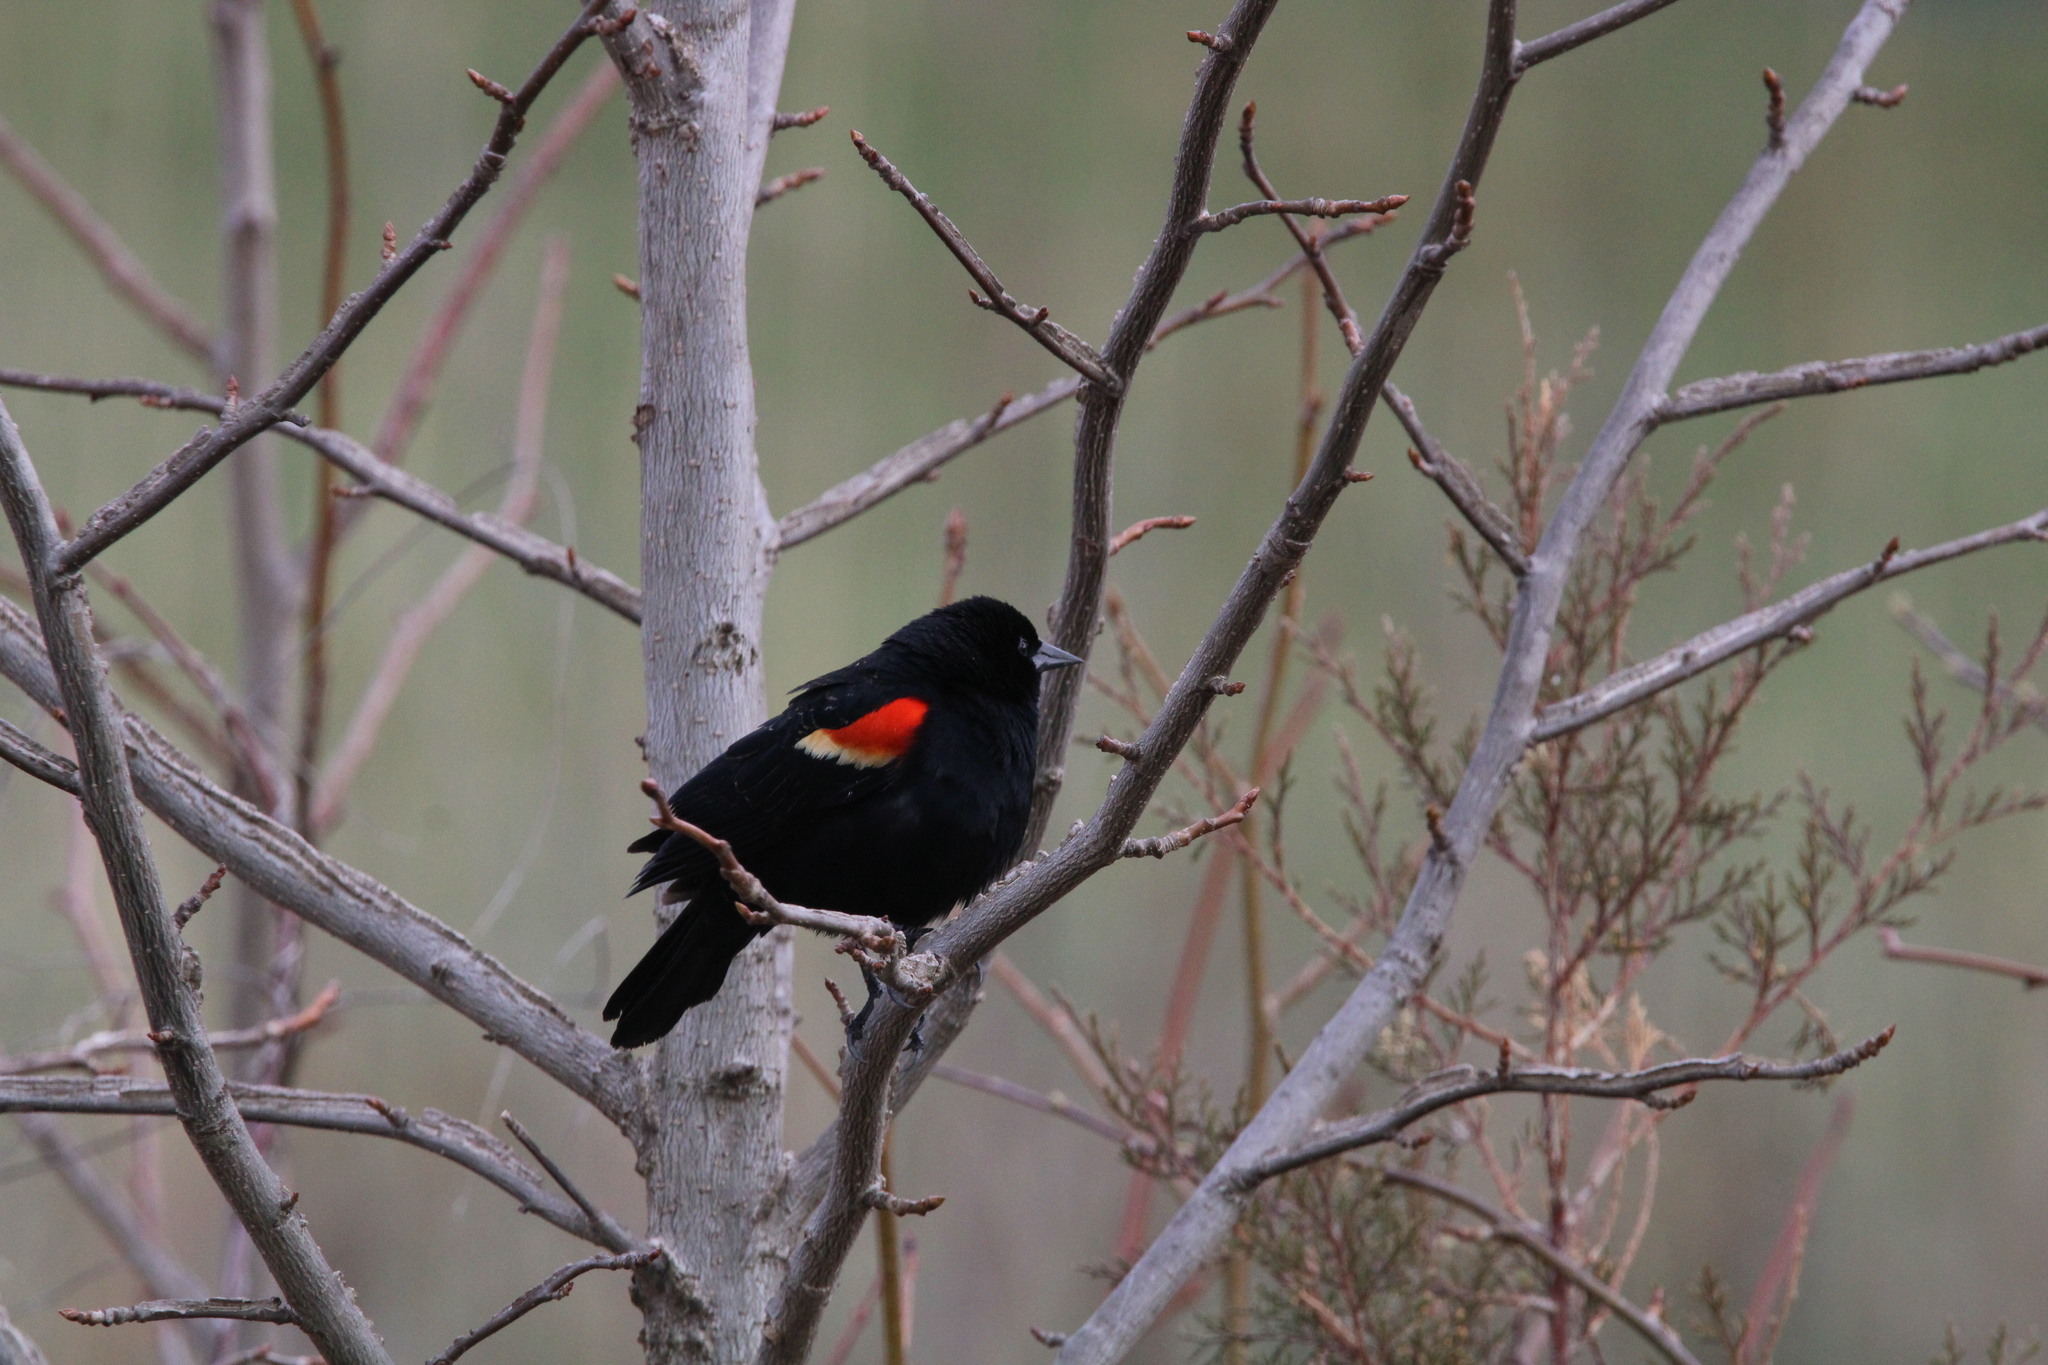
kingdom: Animalia
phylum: Chordata
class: Aves
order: Passeriformes
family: Icteridae
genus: Agelaius
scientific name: Agelaius phoeniceus
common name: Red-winged blackbird
